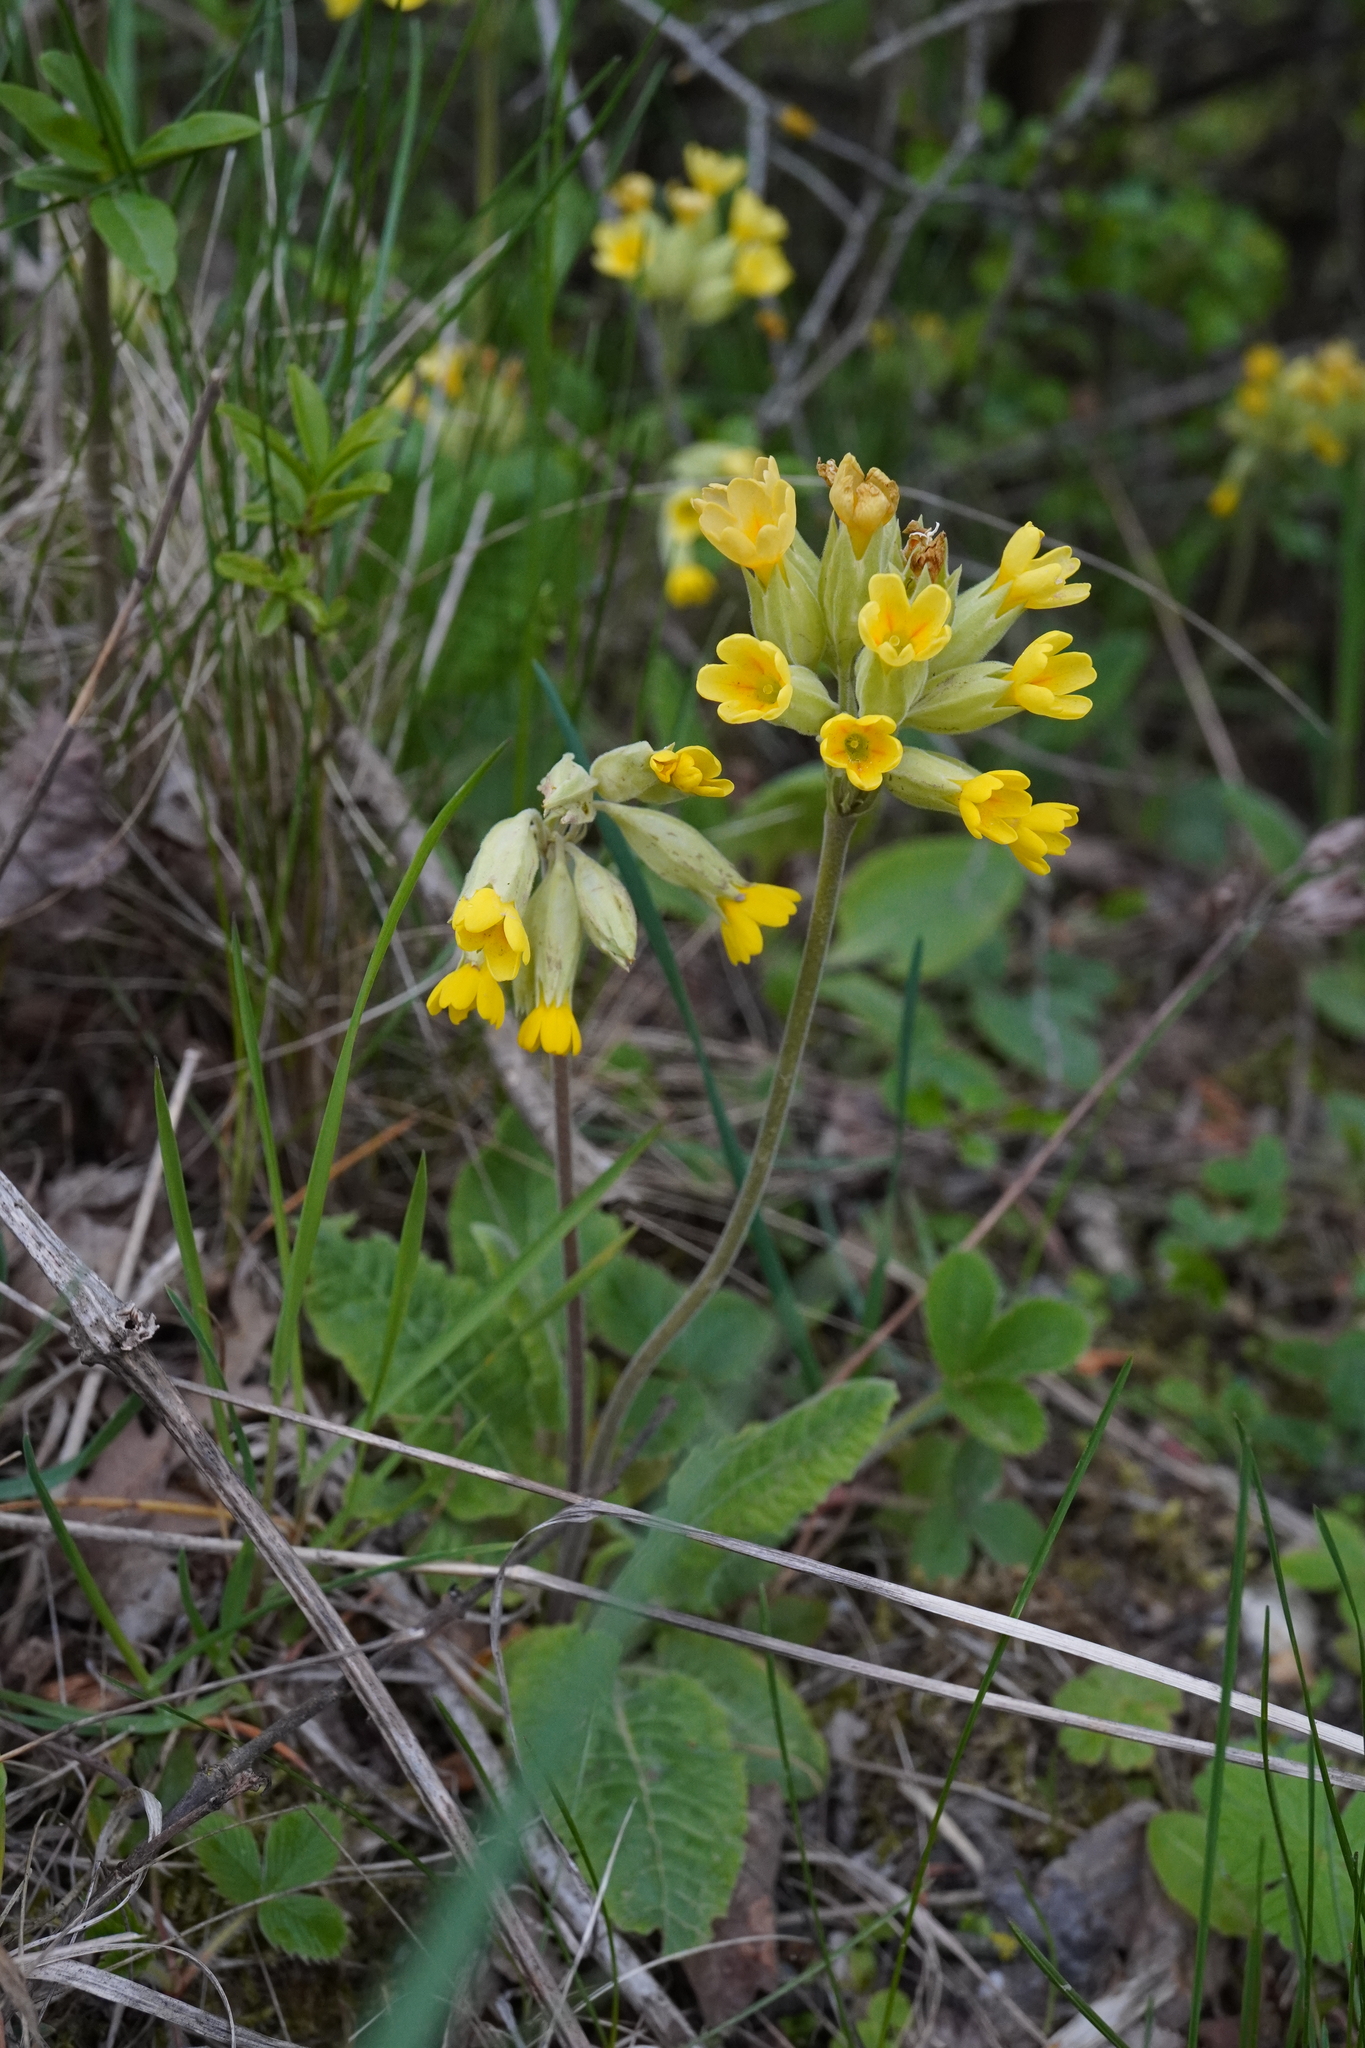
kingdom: Plantae
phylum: Tracheophyta
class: Magnoliopsida
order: Ericales
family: Primulaceae
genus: Primula
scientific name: Primula veris
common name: Cowslip
